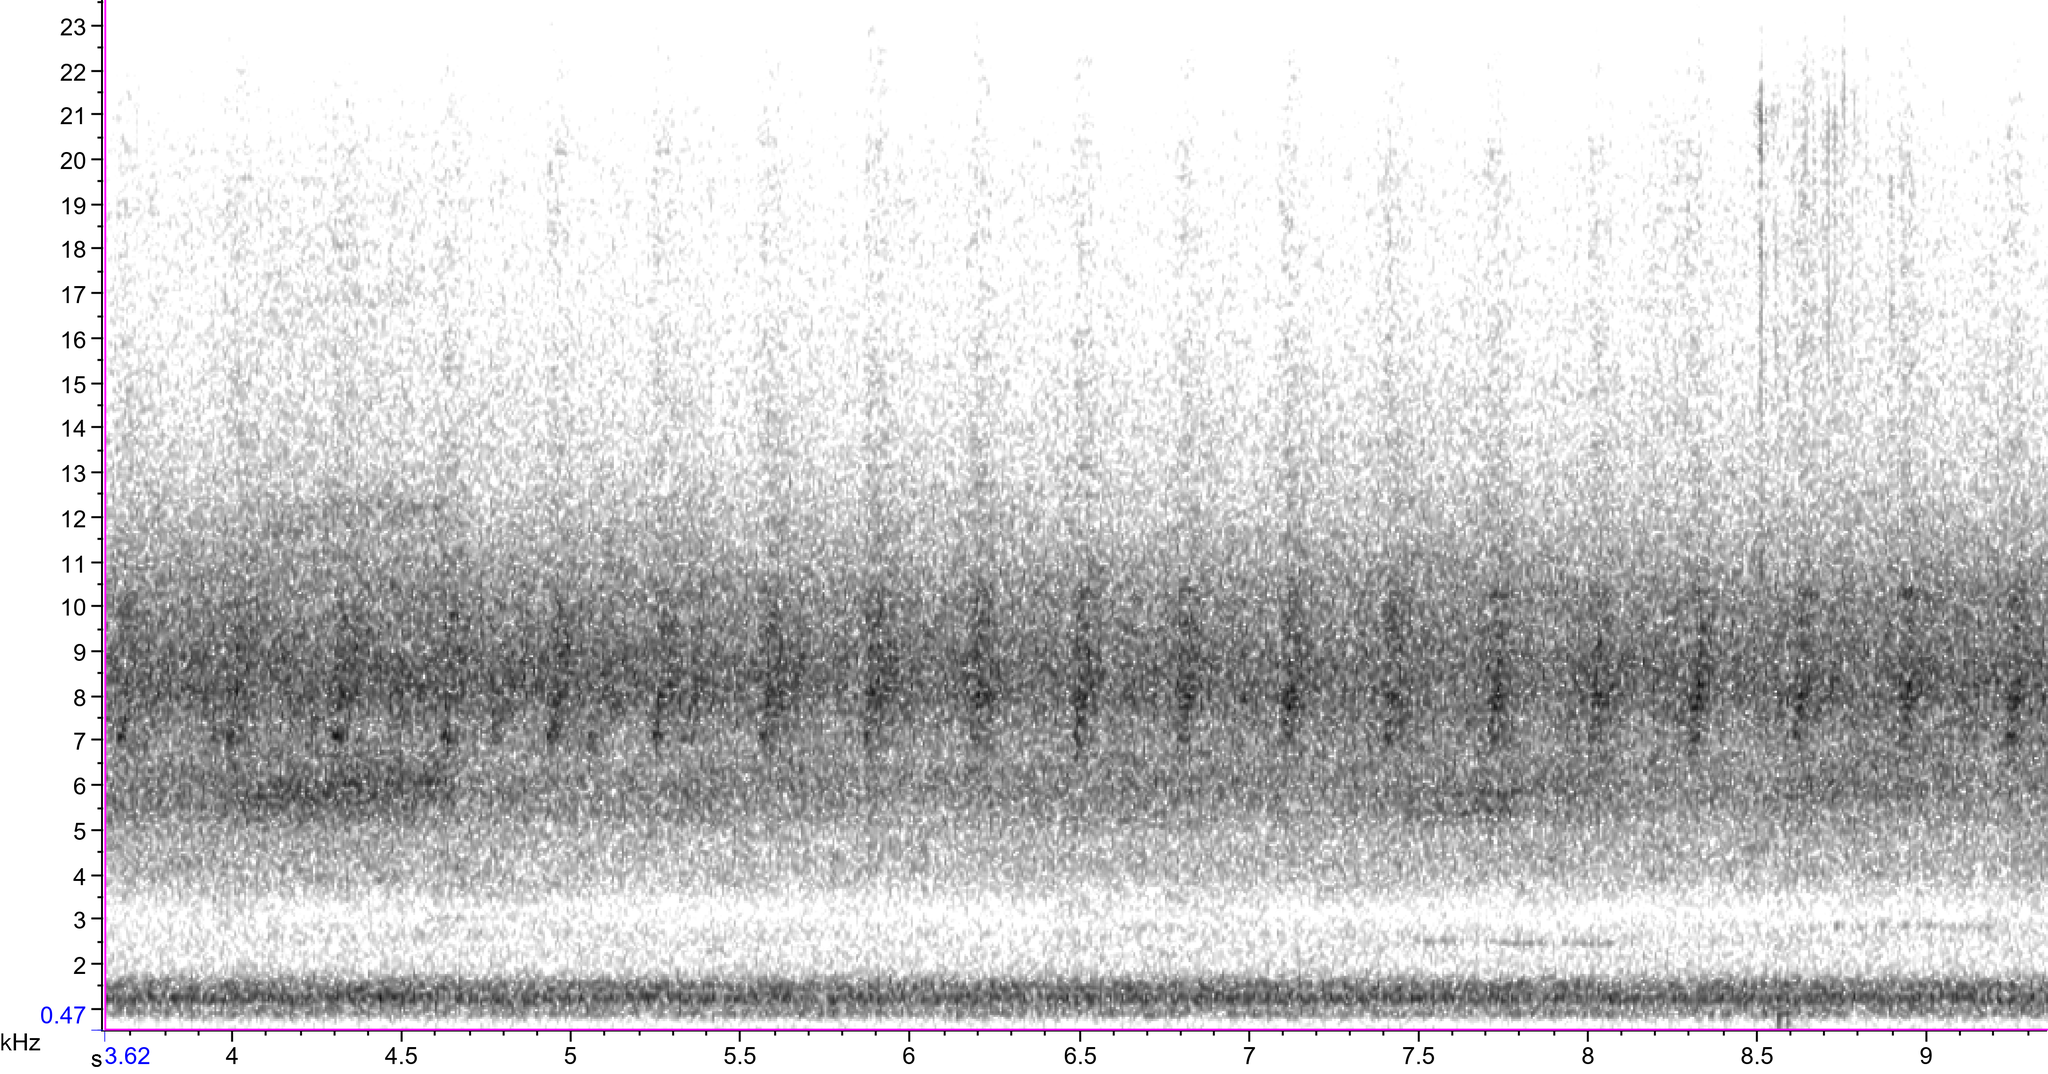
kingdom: Animalia
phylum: Arthropoda
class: Insecta
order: Hemiptera
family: Cicadidae
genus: Magicicada
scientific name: Magicicada septendecula
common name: Decula periodical cicada
